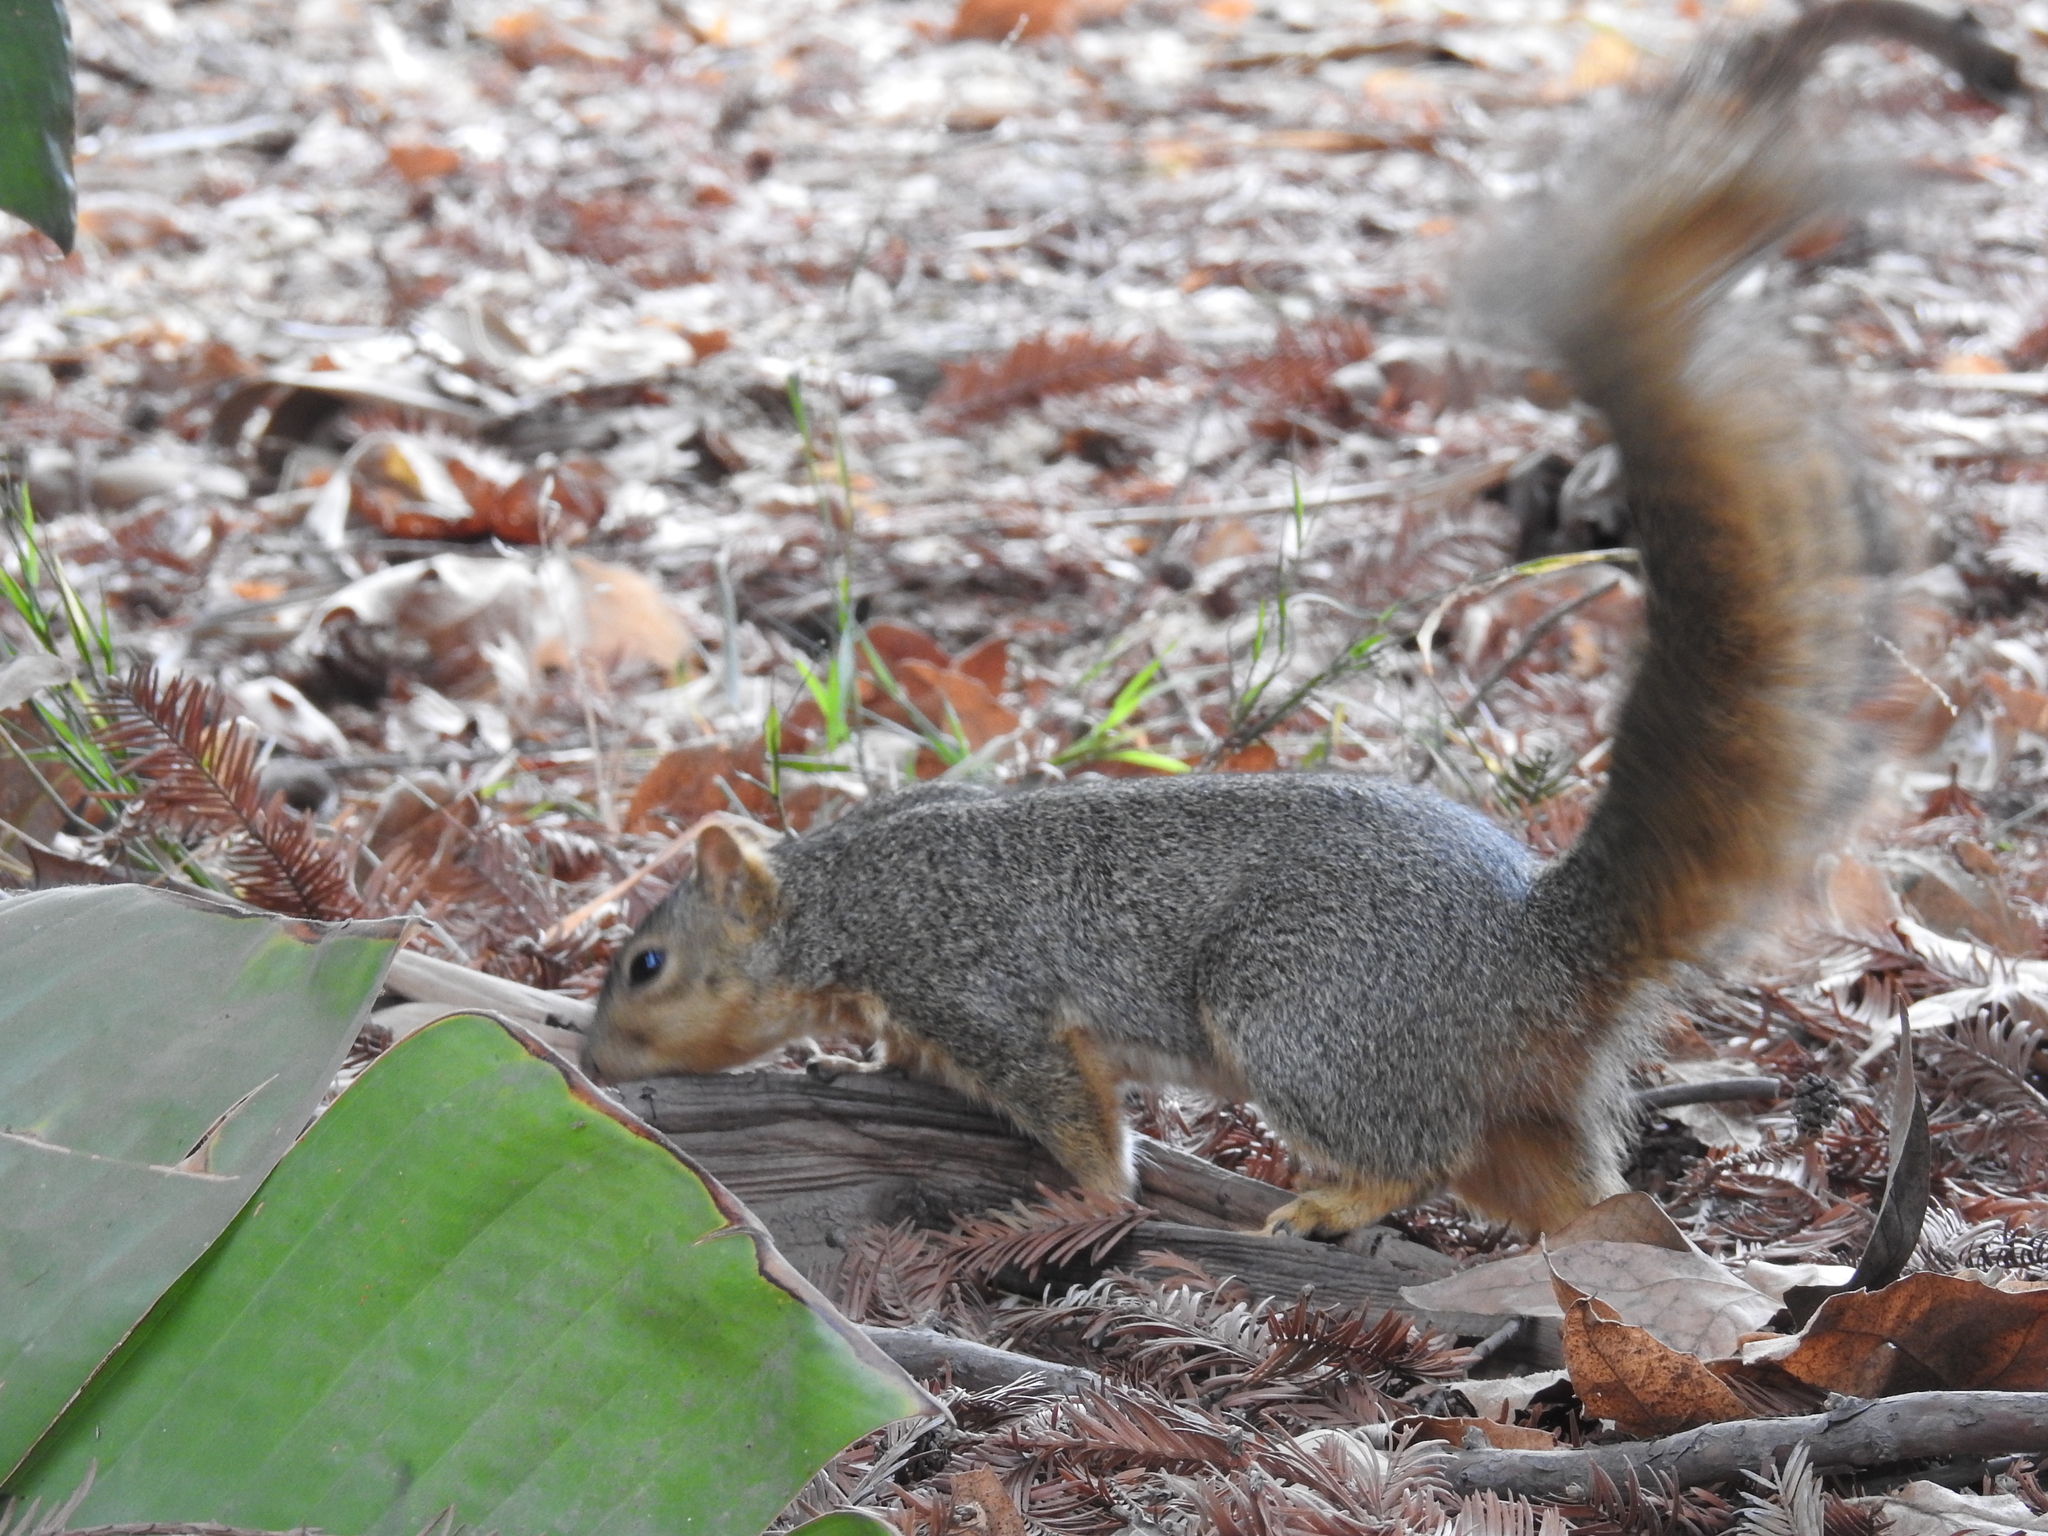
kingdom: Animalia
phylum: Chordata
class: Mammalia
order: Rodentia
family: Sciuridae
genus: Sciurus
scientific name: Sciurus niger
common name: Fox squirrel
